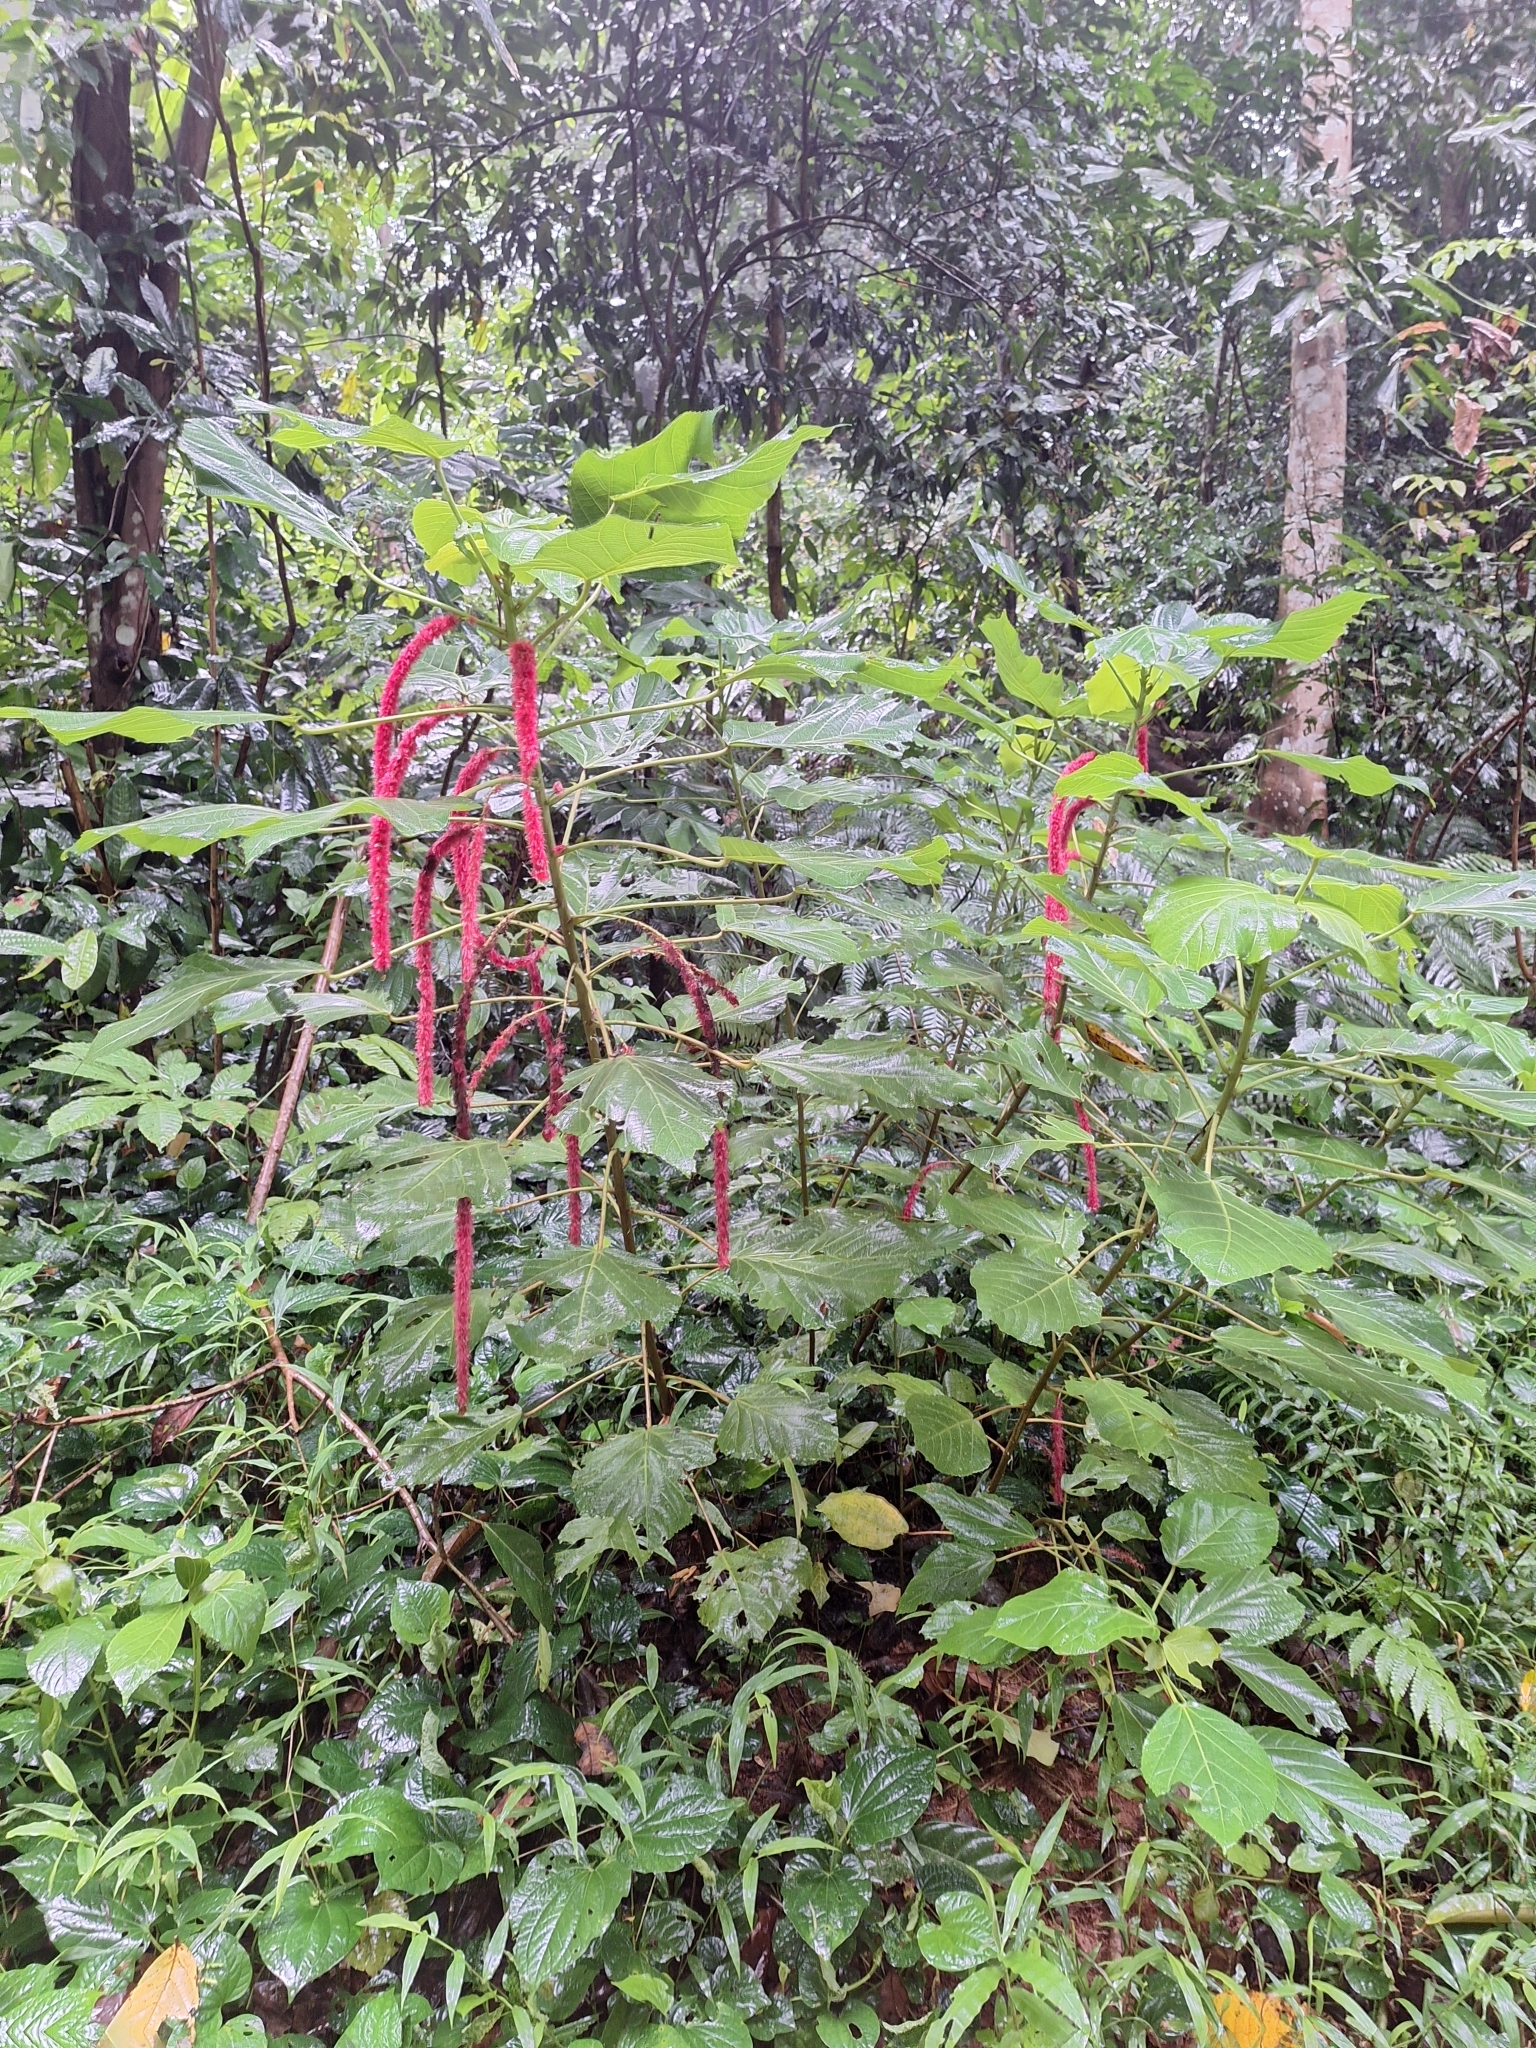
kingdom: Plantae
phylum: Tracheophyta
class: Magnoliopsida
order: Malpighiales
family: Euphorbiaceae
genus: Acalypha
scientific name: Acalypha hispida
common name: Chenilleplant
